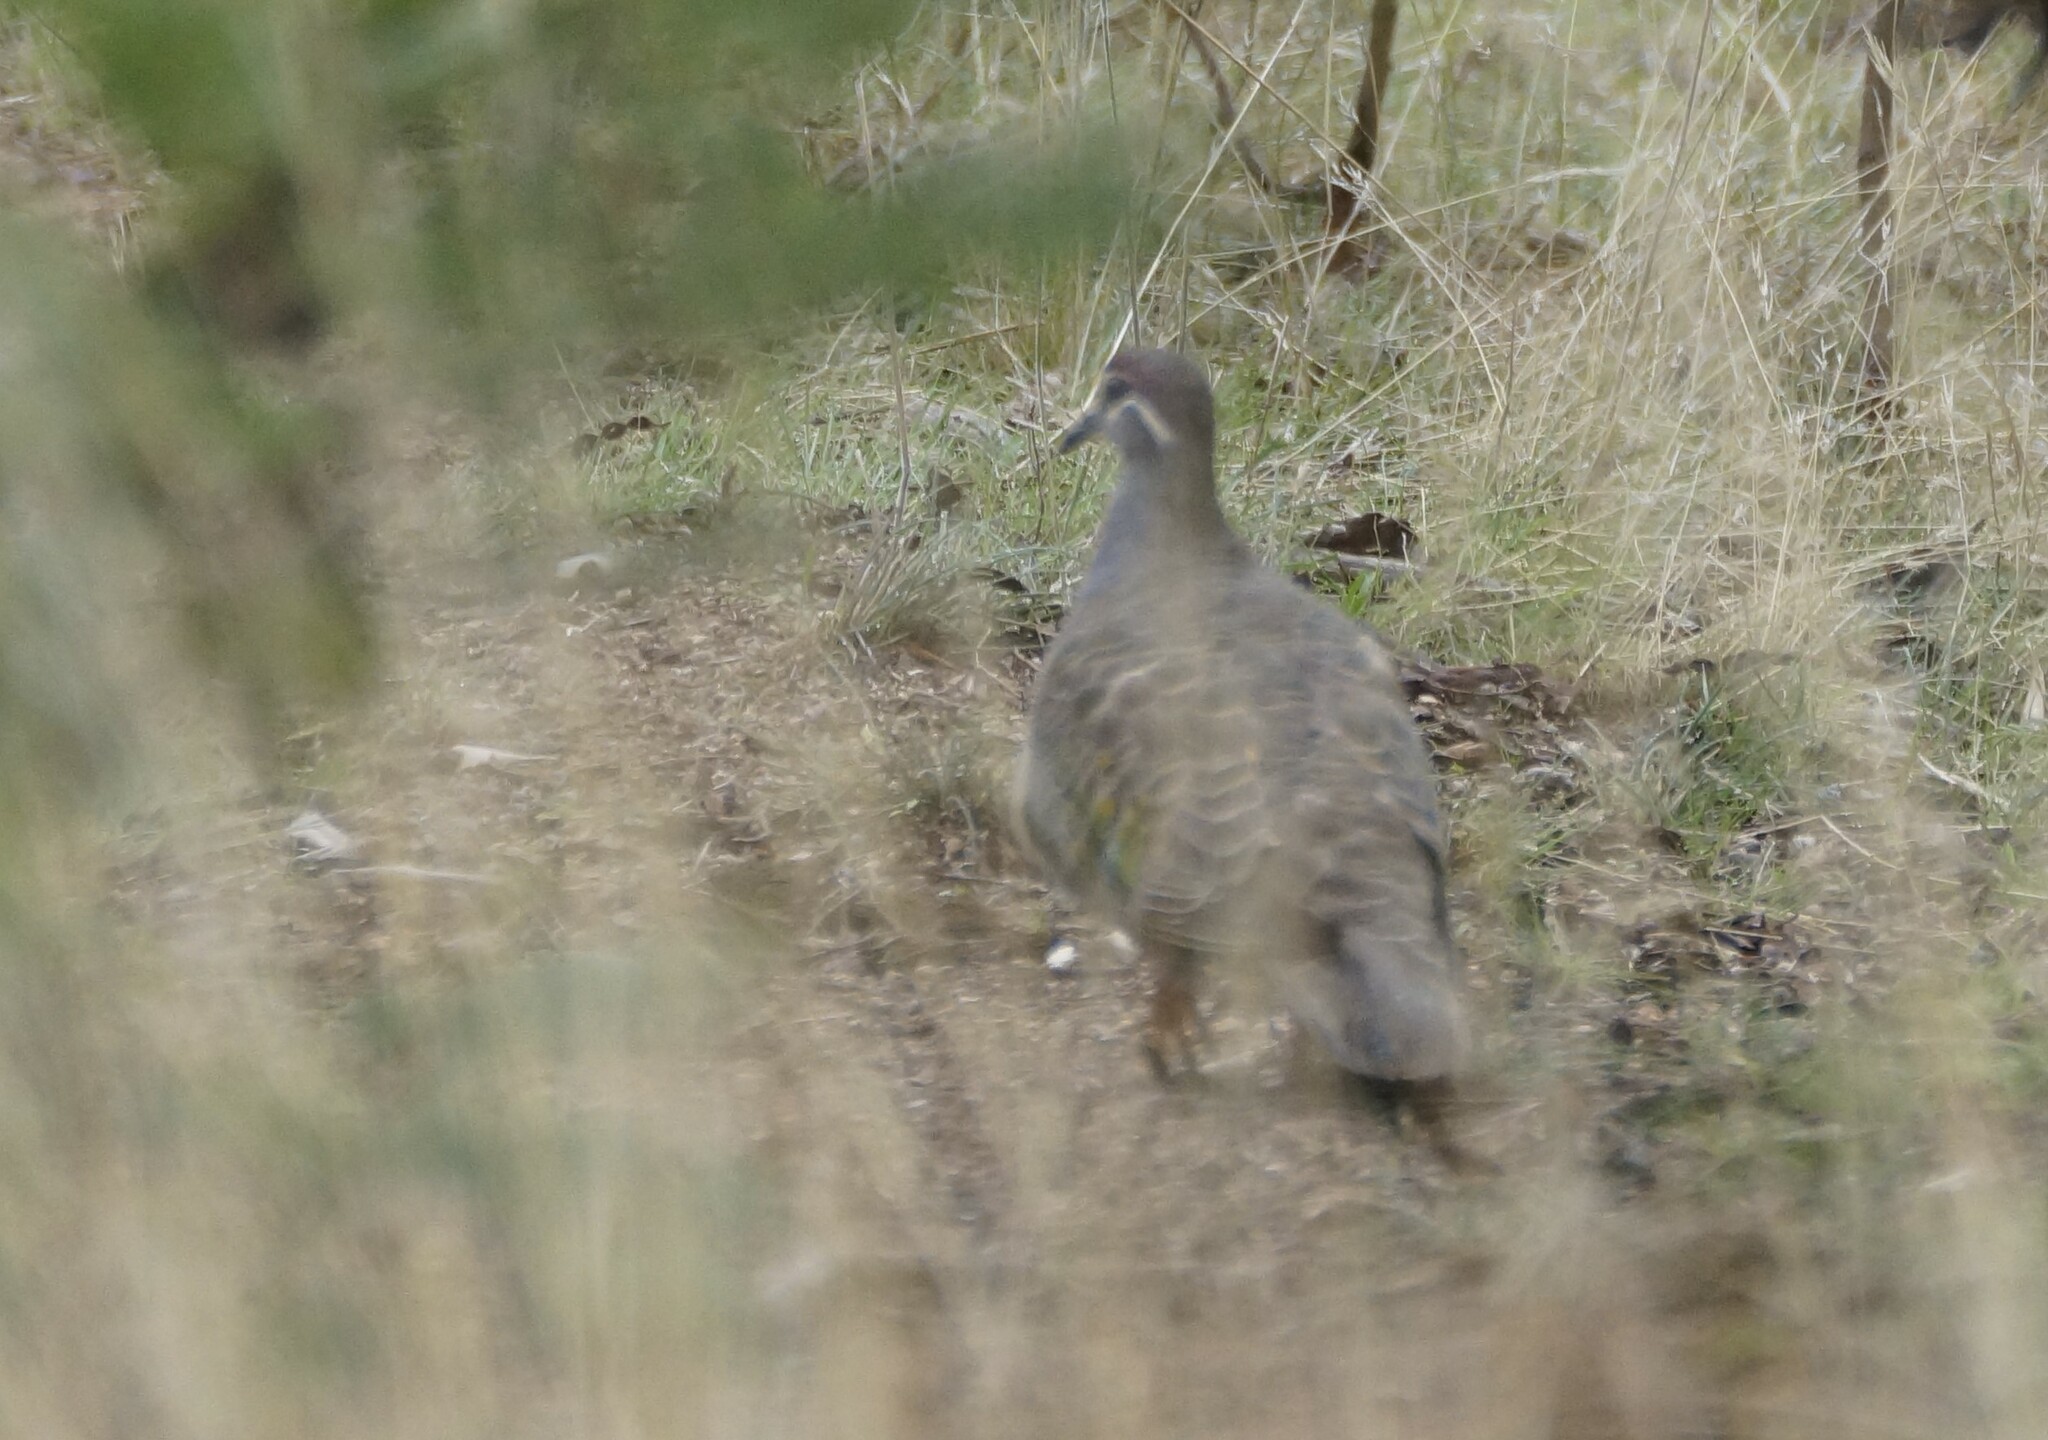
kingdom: Animalia
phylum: Chordata
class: Aves
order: Columbiformes
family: Columbidae
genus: Phaps
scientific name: Phaps chalcoptera
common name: Common bronzewing
